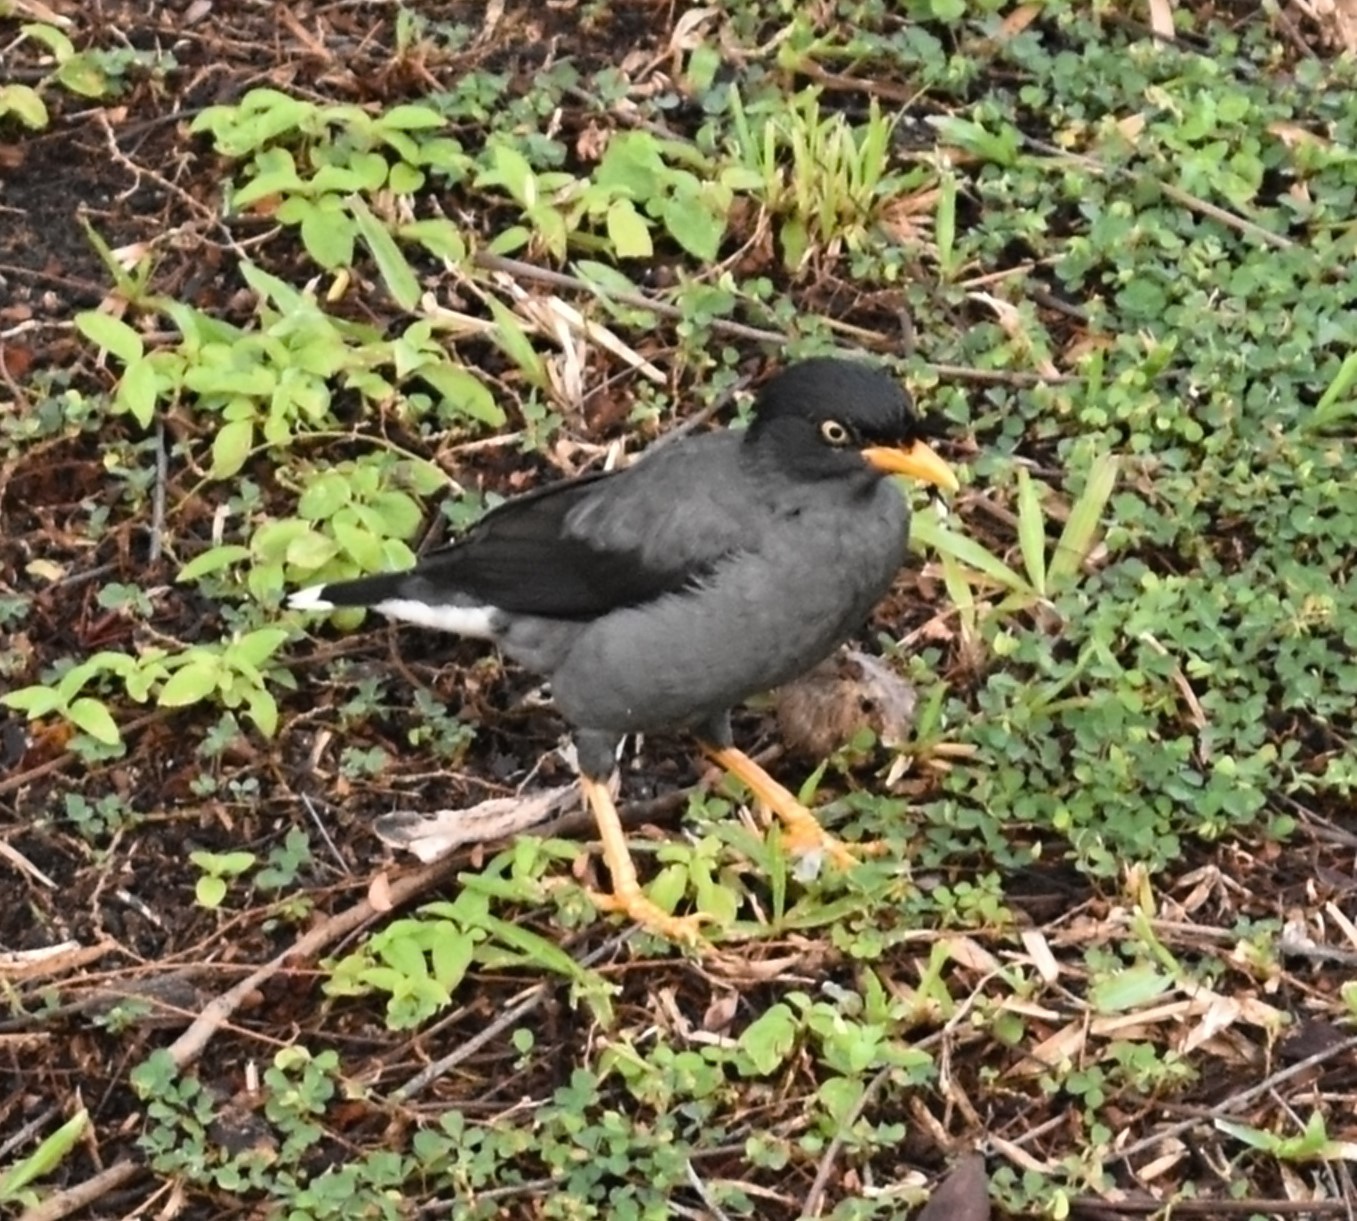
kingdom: Animalia
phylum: Chordata
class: Aves
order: Passeriformes
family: Sturnidae
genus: Acridotheres
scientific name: Acridotheres javanicus
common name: Javan myna
